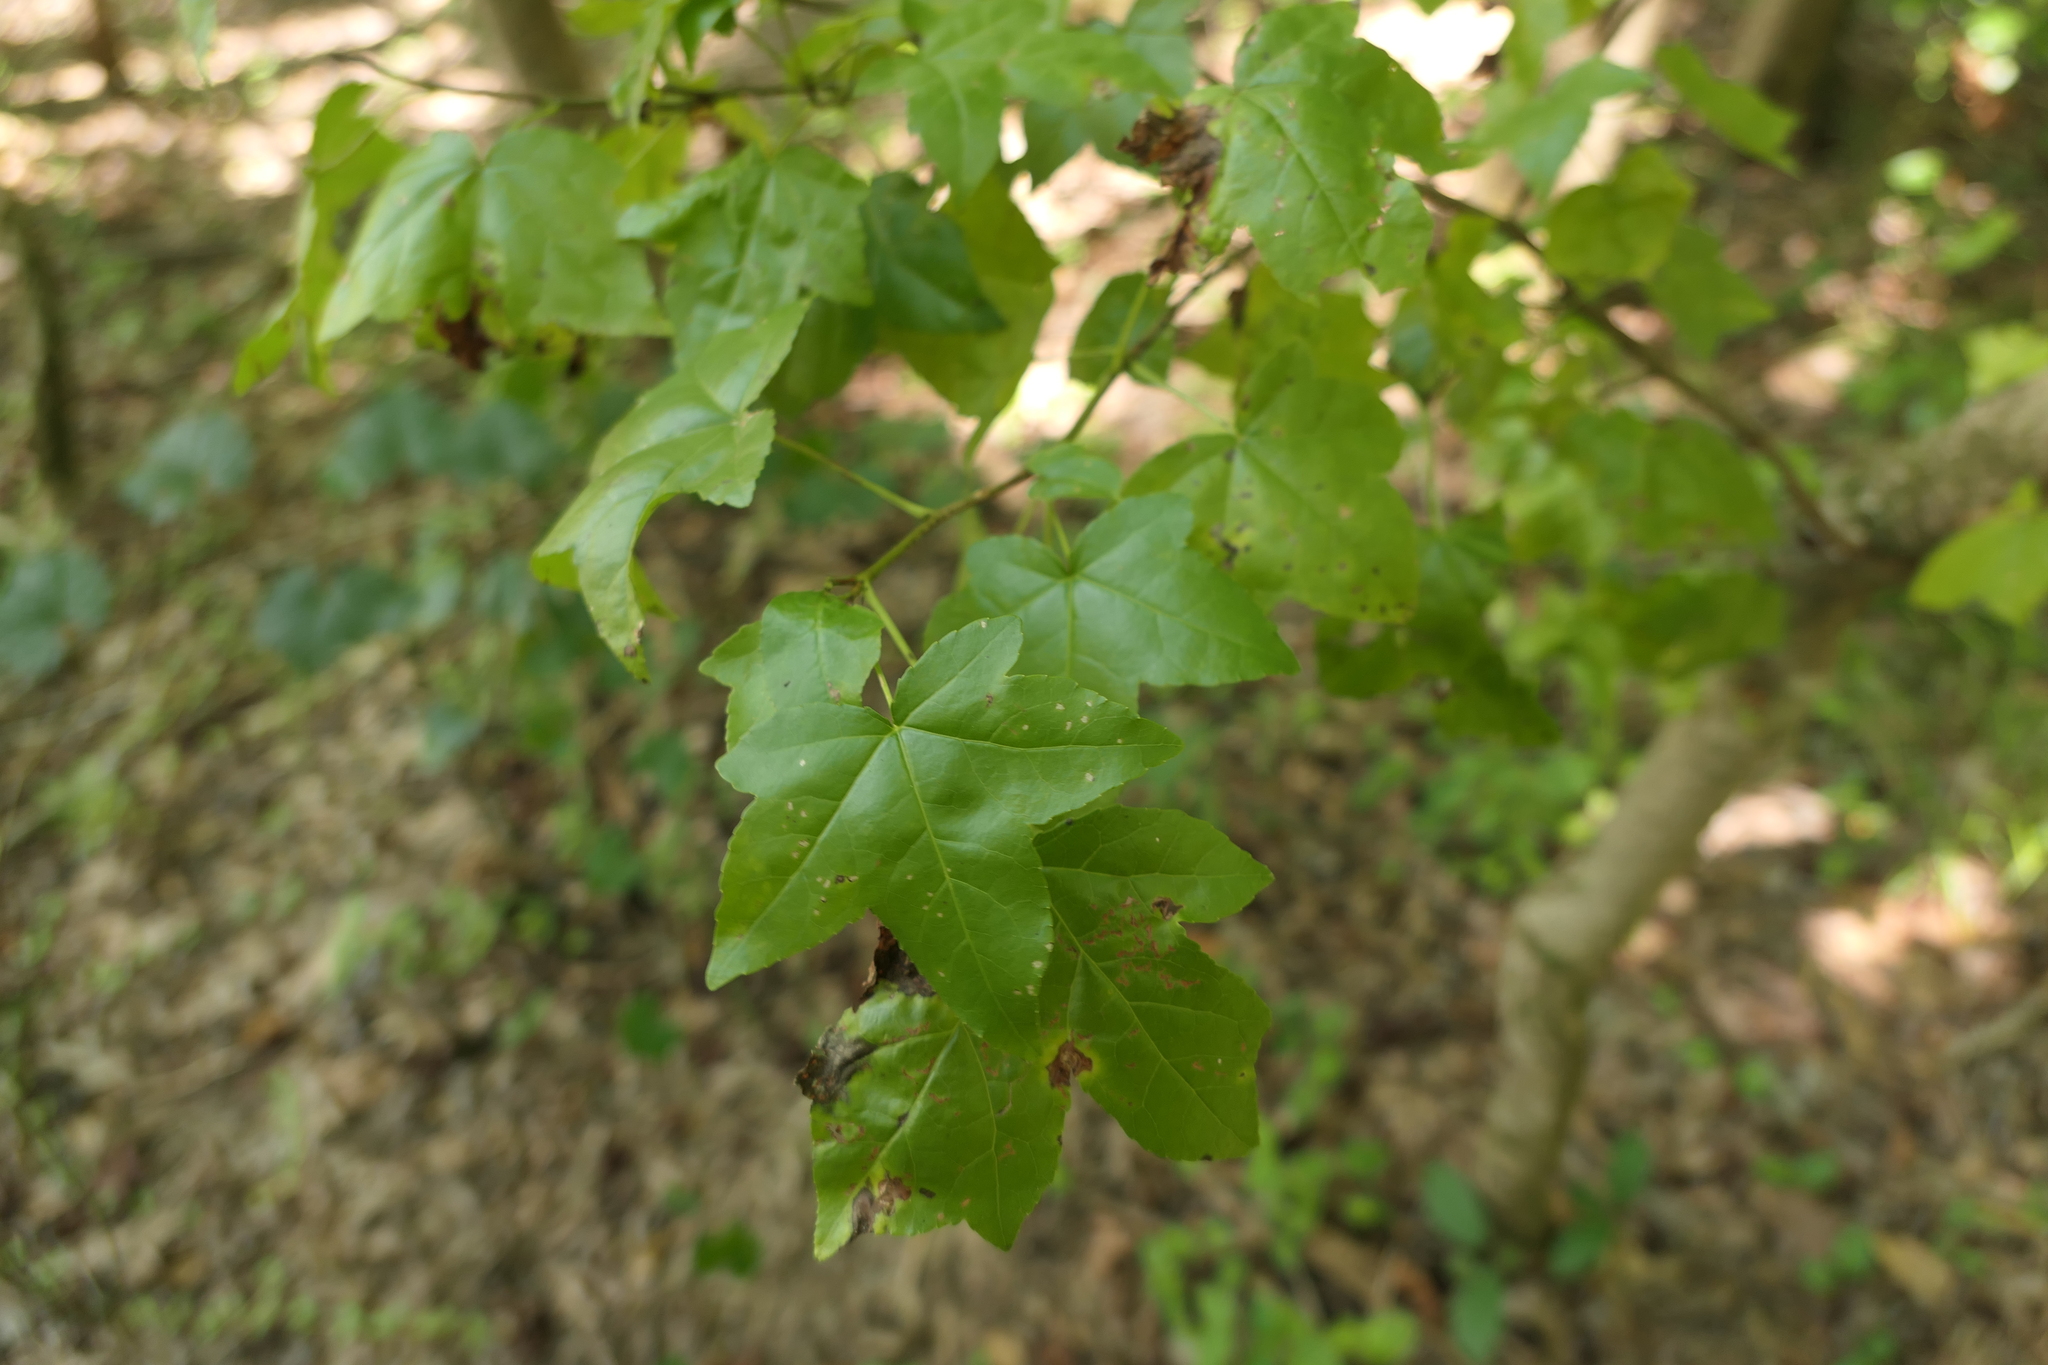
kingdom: Plantae
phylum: Tracheophyta
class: Magnoliopsida
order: Saxifragales
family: Altingiaceae
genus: Liquidambar
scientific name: Liquidambar styraciflua
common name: Sweet gum
